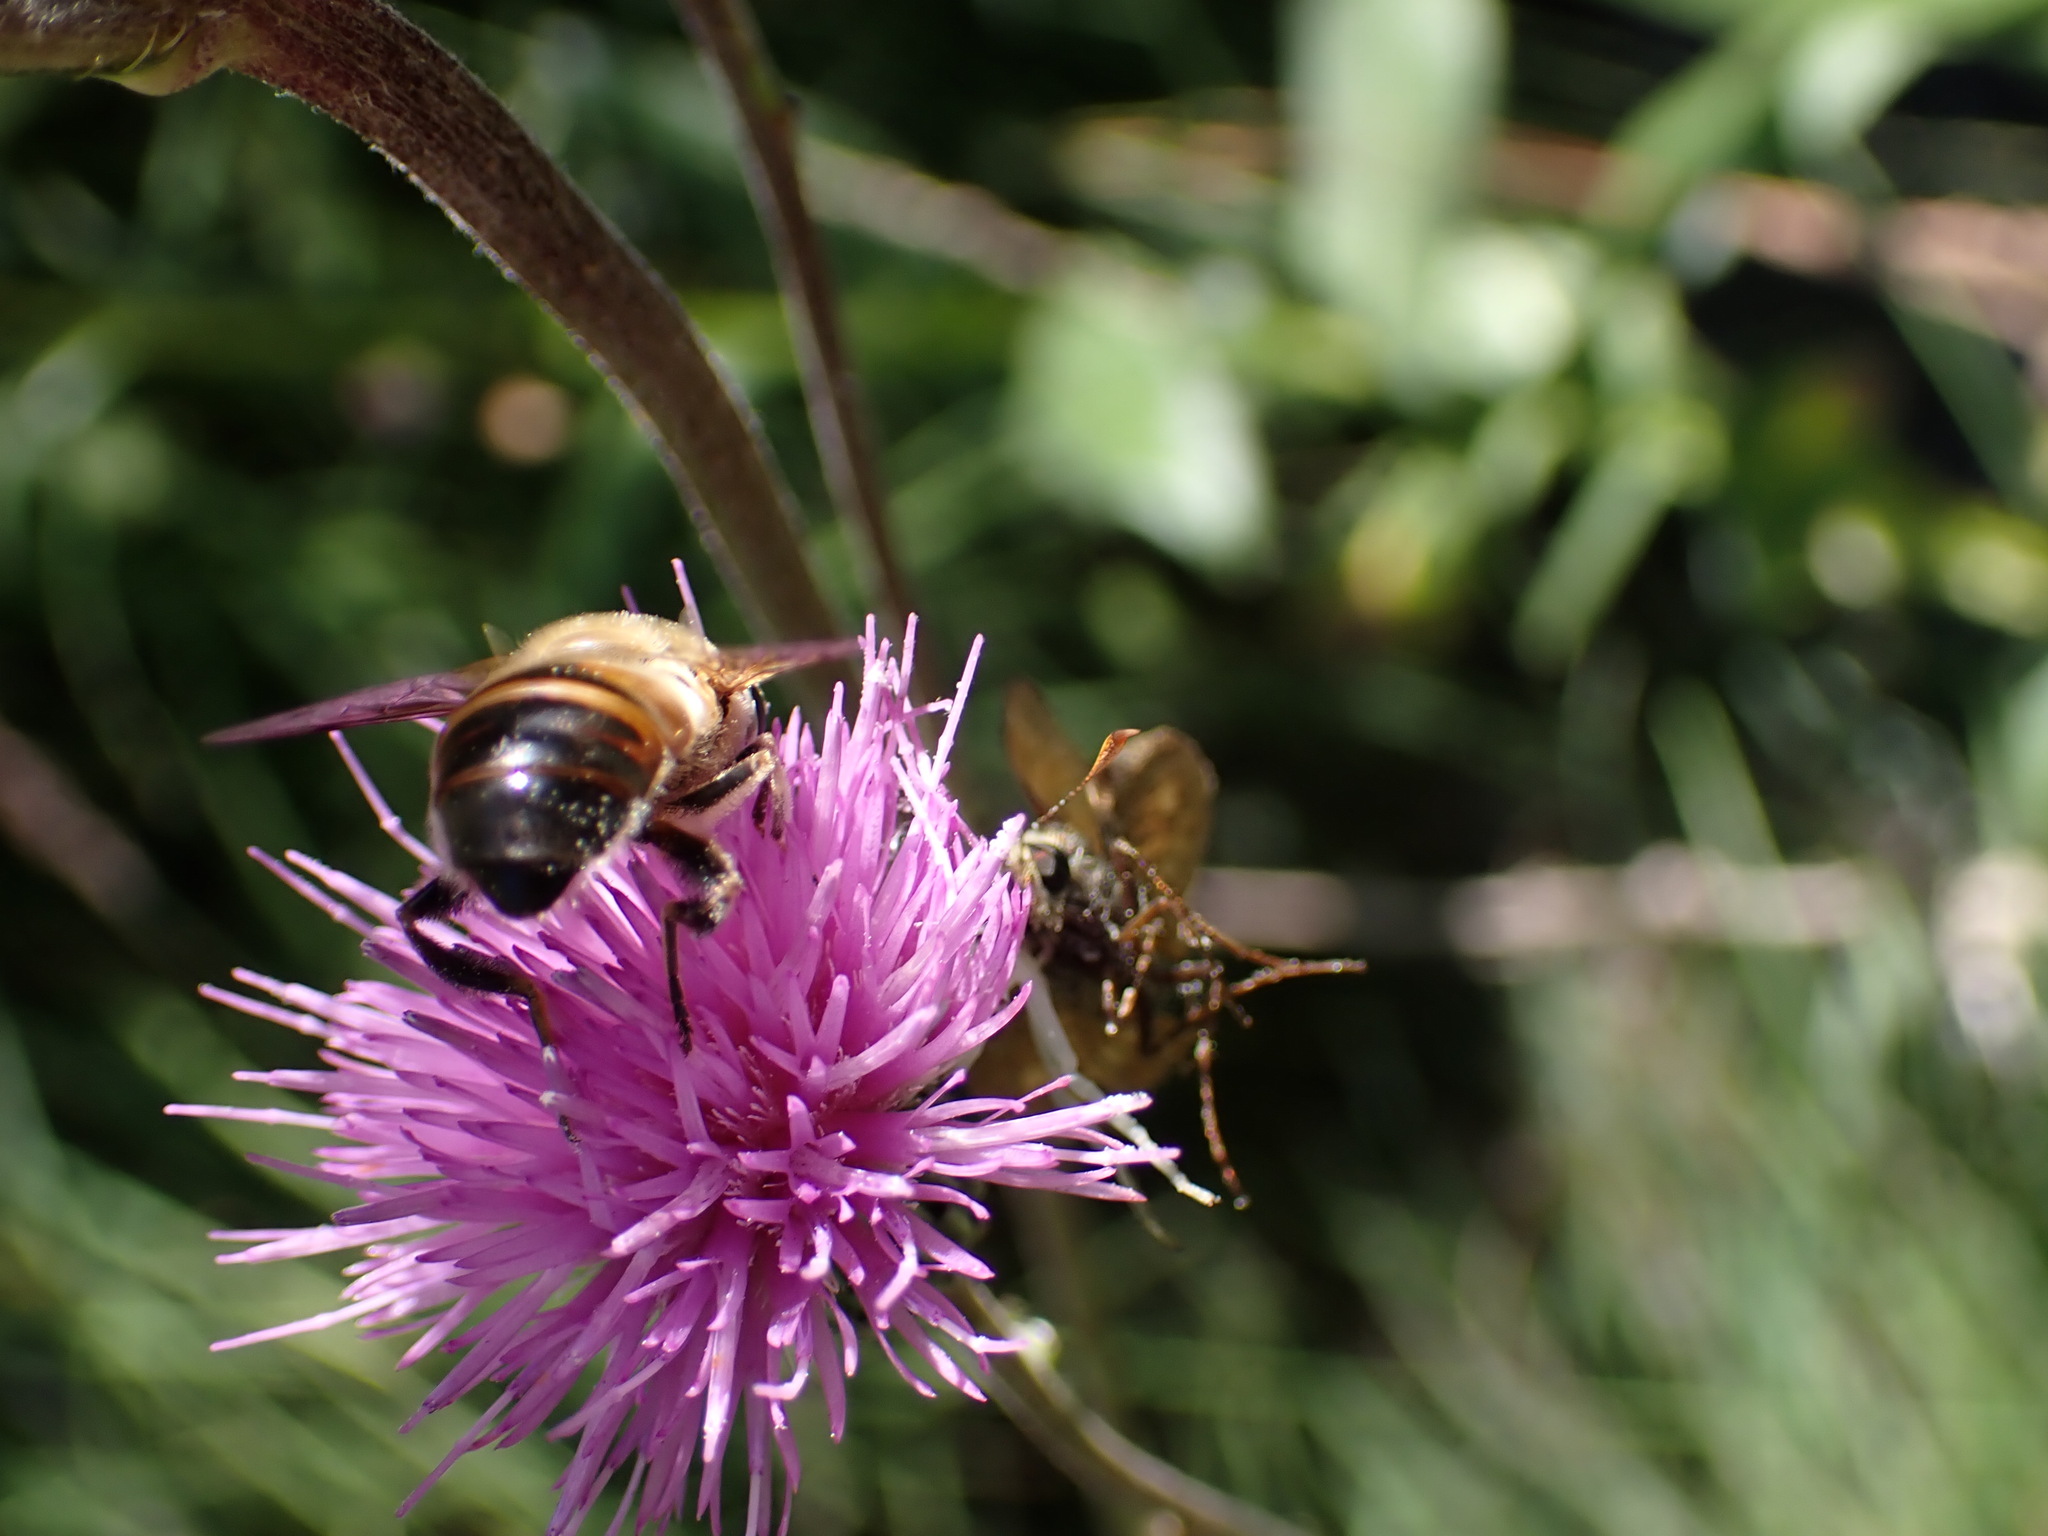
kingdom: Animalia
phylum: Arthropoda
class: Insecta
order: Diptera
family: Syrphidae
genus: Eristalis
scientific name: Eristalis tenax
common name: Drone fly
